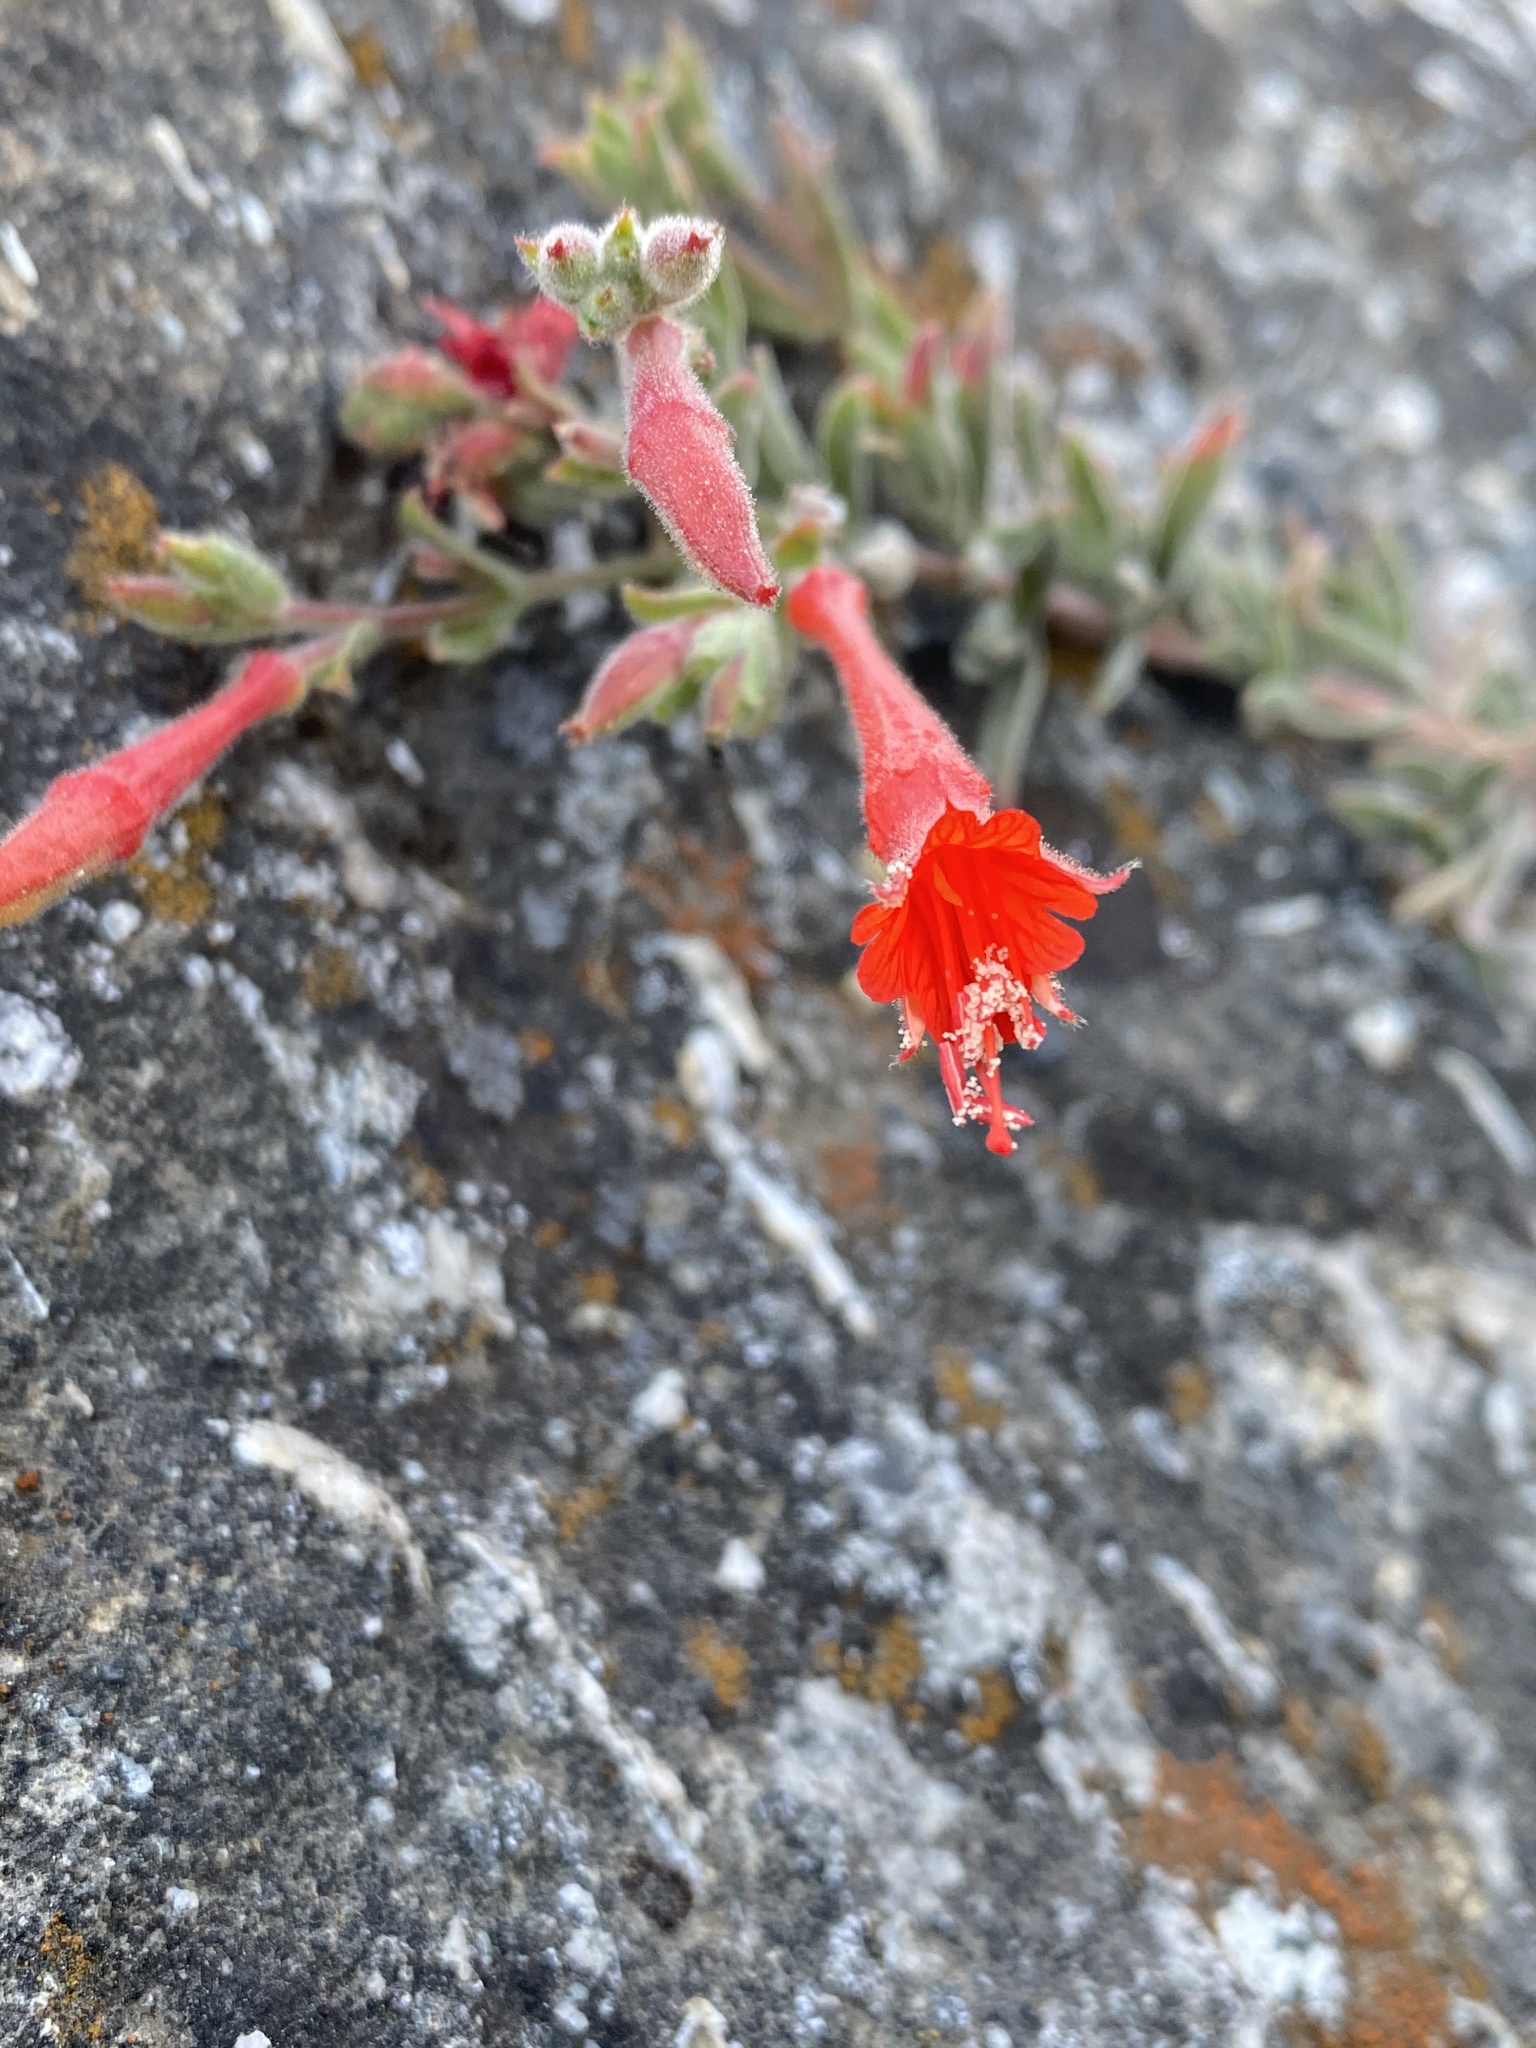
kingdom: Plantae
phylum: Tracheophyta
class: Magnoliopsida
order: Myrtales
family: Onagraceae
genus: Epilobium
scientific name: Epilobium canum
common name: California-fuchsia
